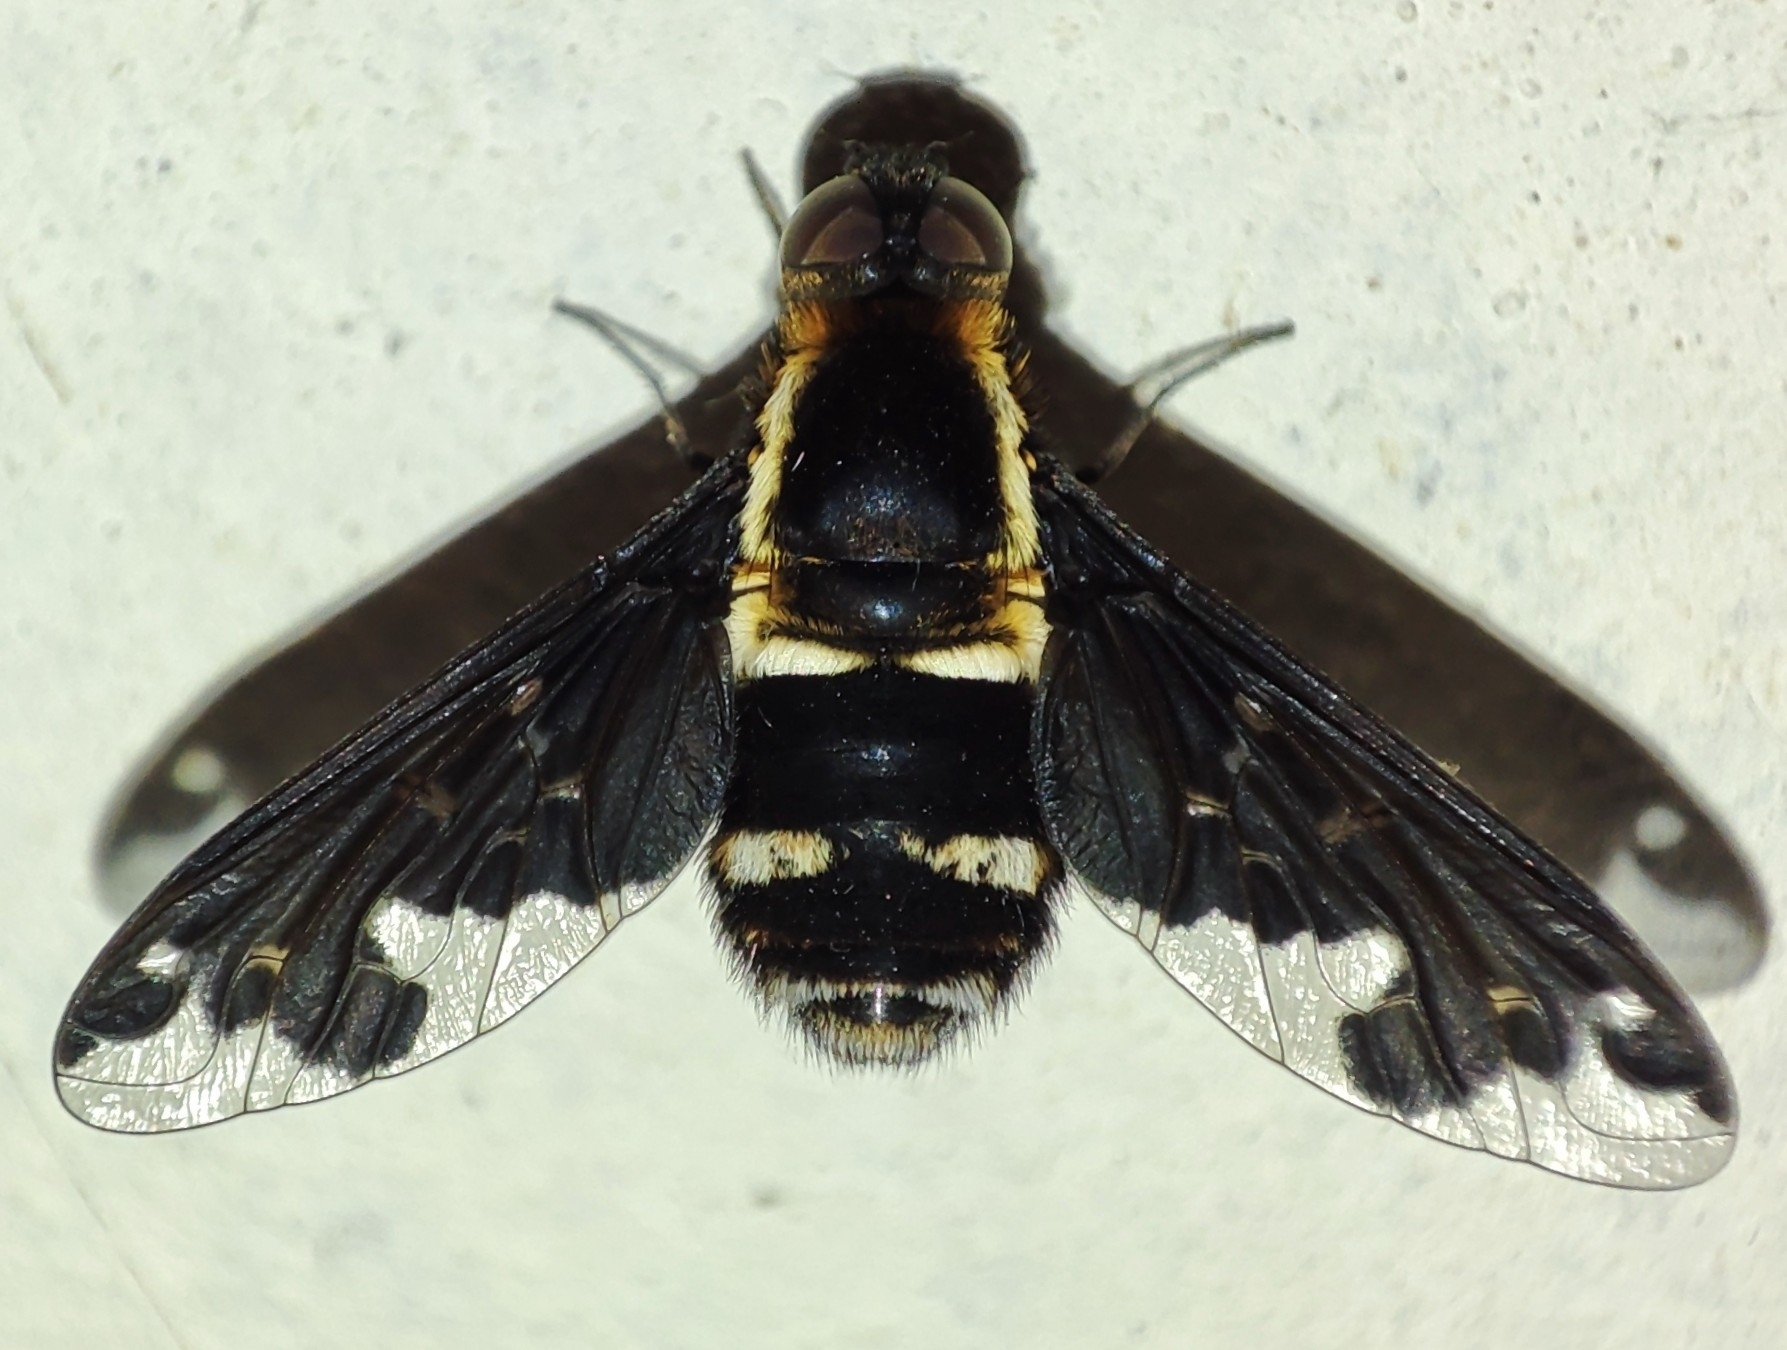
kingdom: Animalia
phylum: Arthropoda
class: Insecta
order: Diptera
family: Bombyliidae
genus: Hemipenthes
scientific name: Hemipenthes maura
